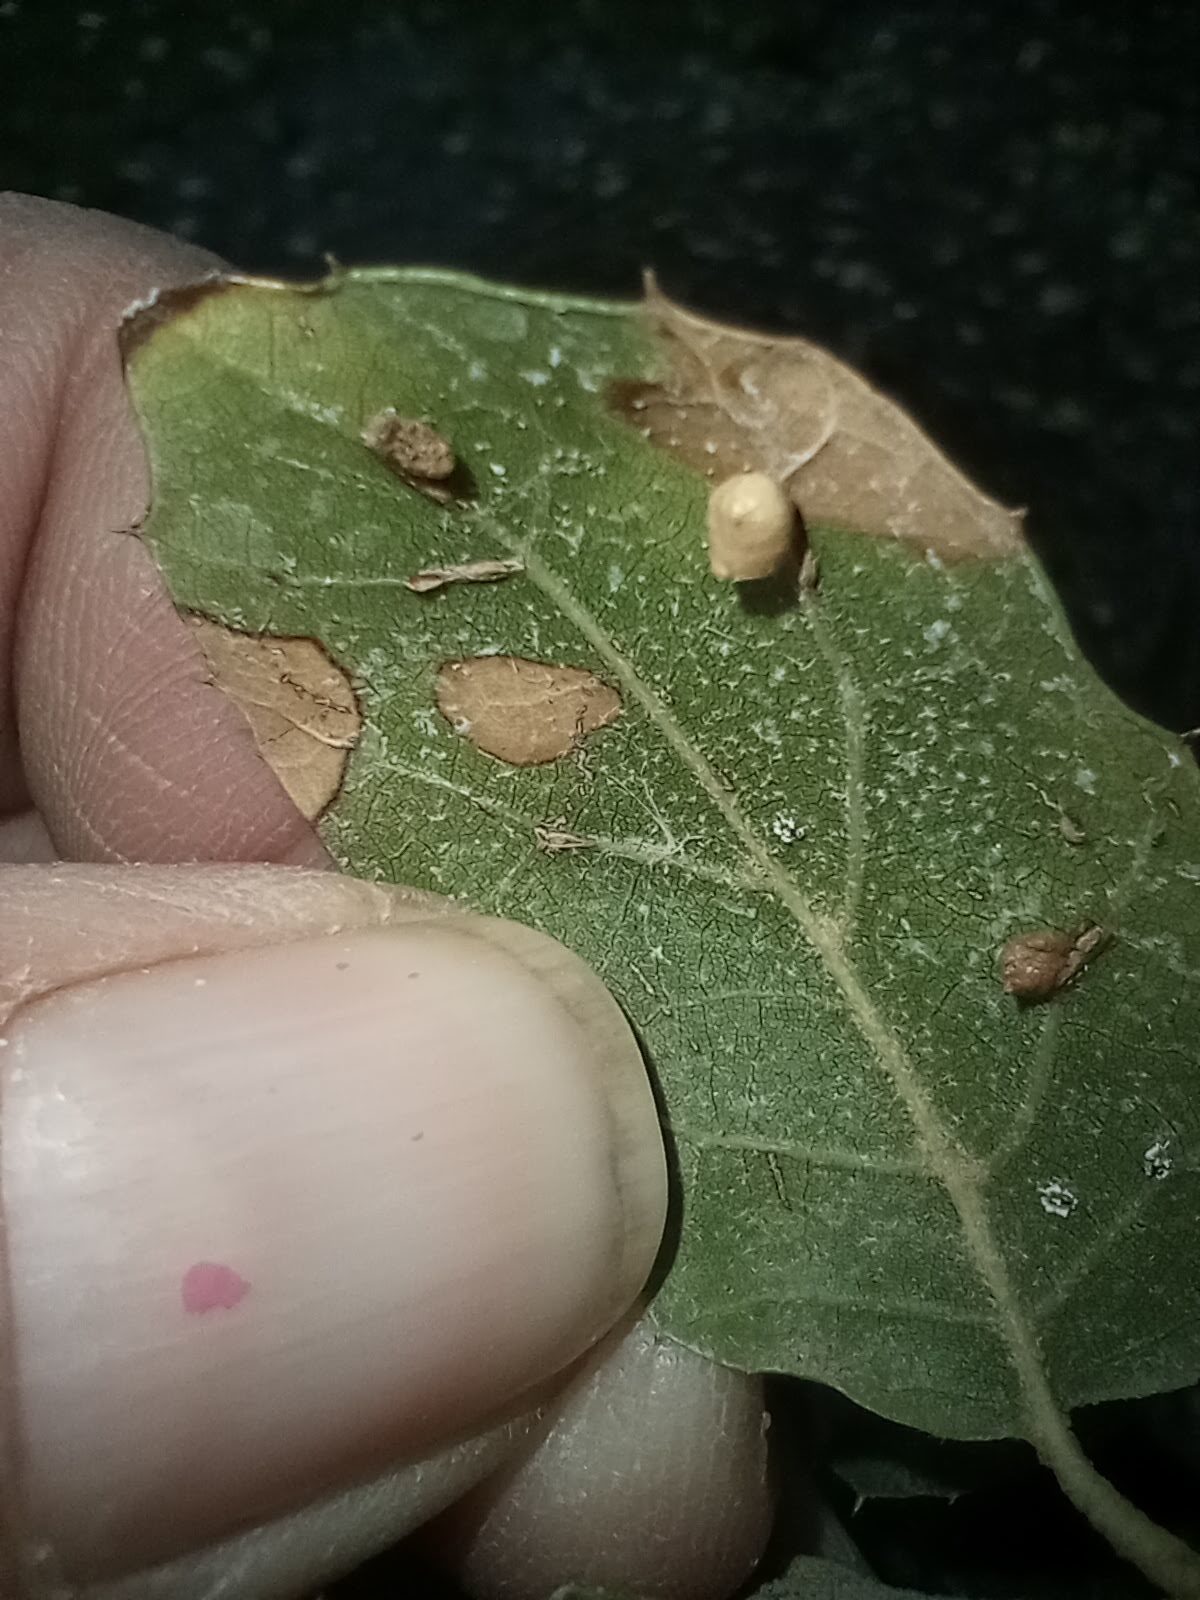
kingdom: Animalia
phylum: Arthropoda
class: Insecta
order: Hymenoptera
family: Cynipidae
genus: Dryocosmus
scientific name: Dryocosmus
